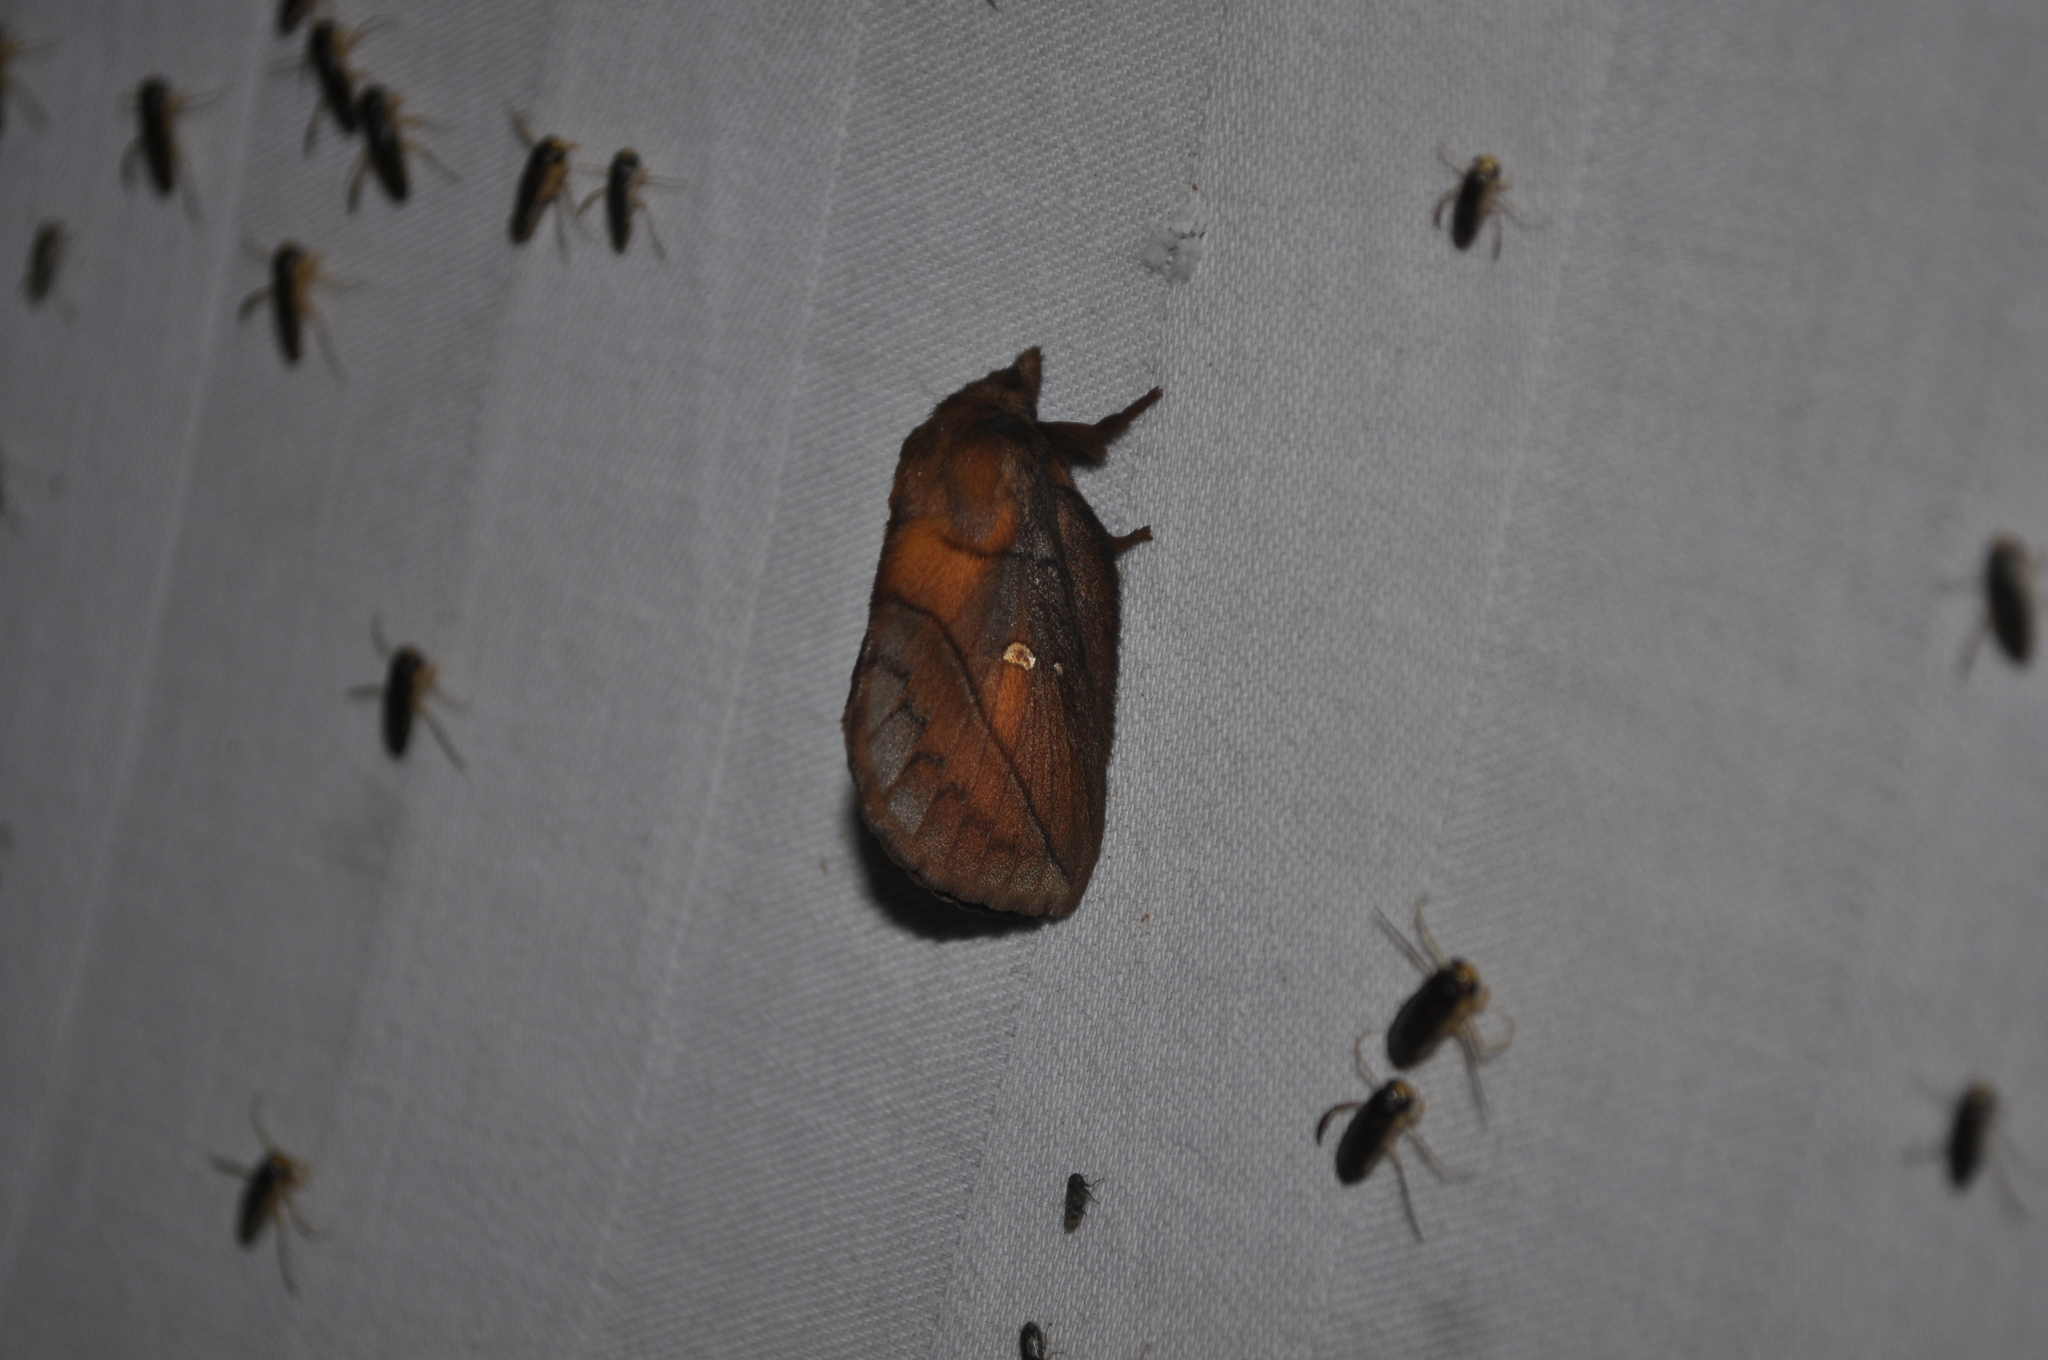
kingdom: Animalia
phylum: Arthropoda
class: Insecta
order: Lepidoptera
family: Lasiocampidae
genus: Euthrix
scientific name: Euthrix potatoria
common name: Drinker
